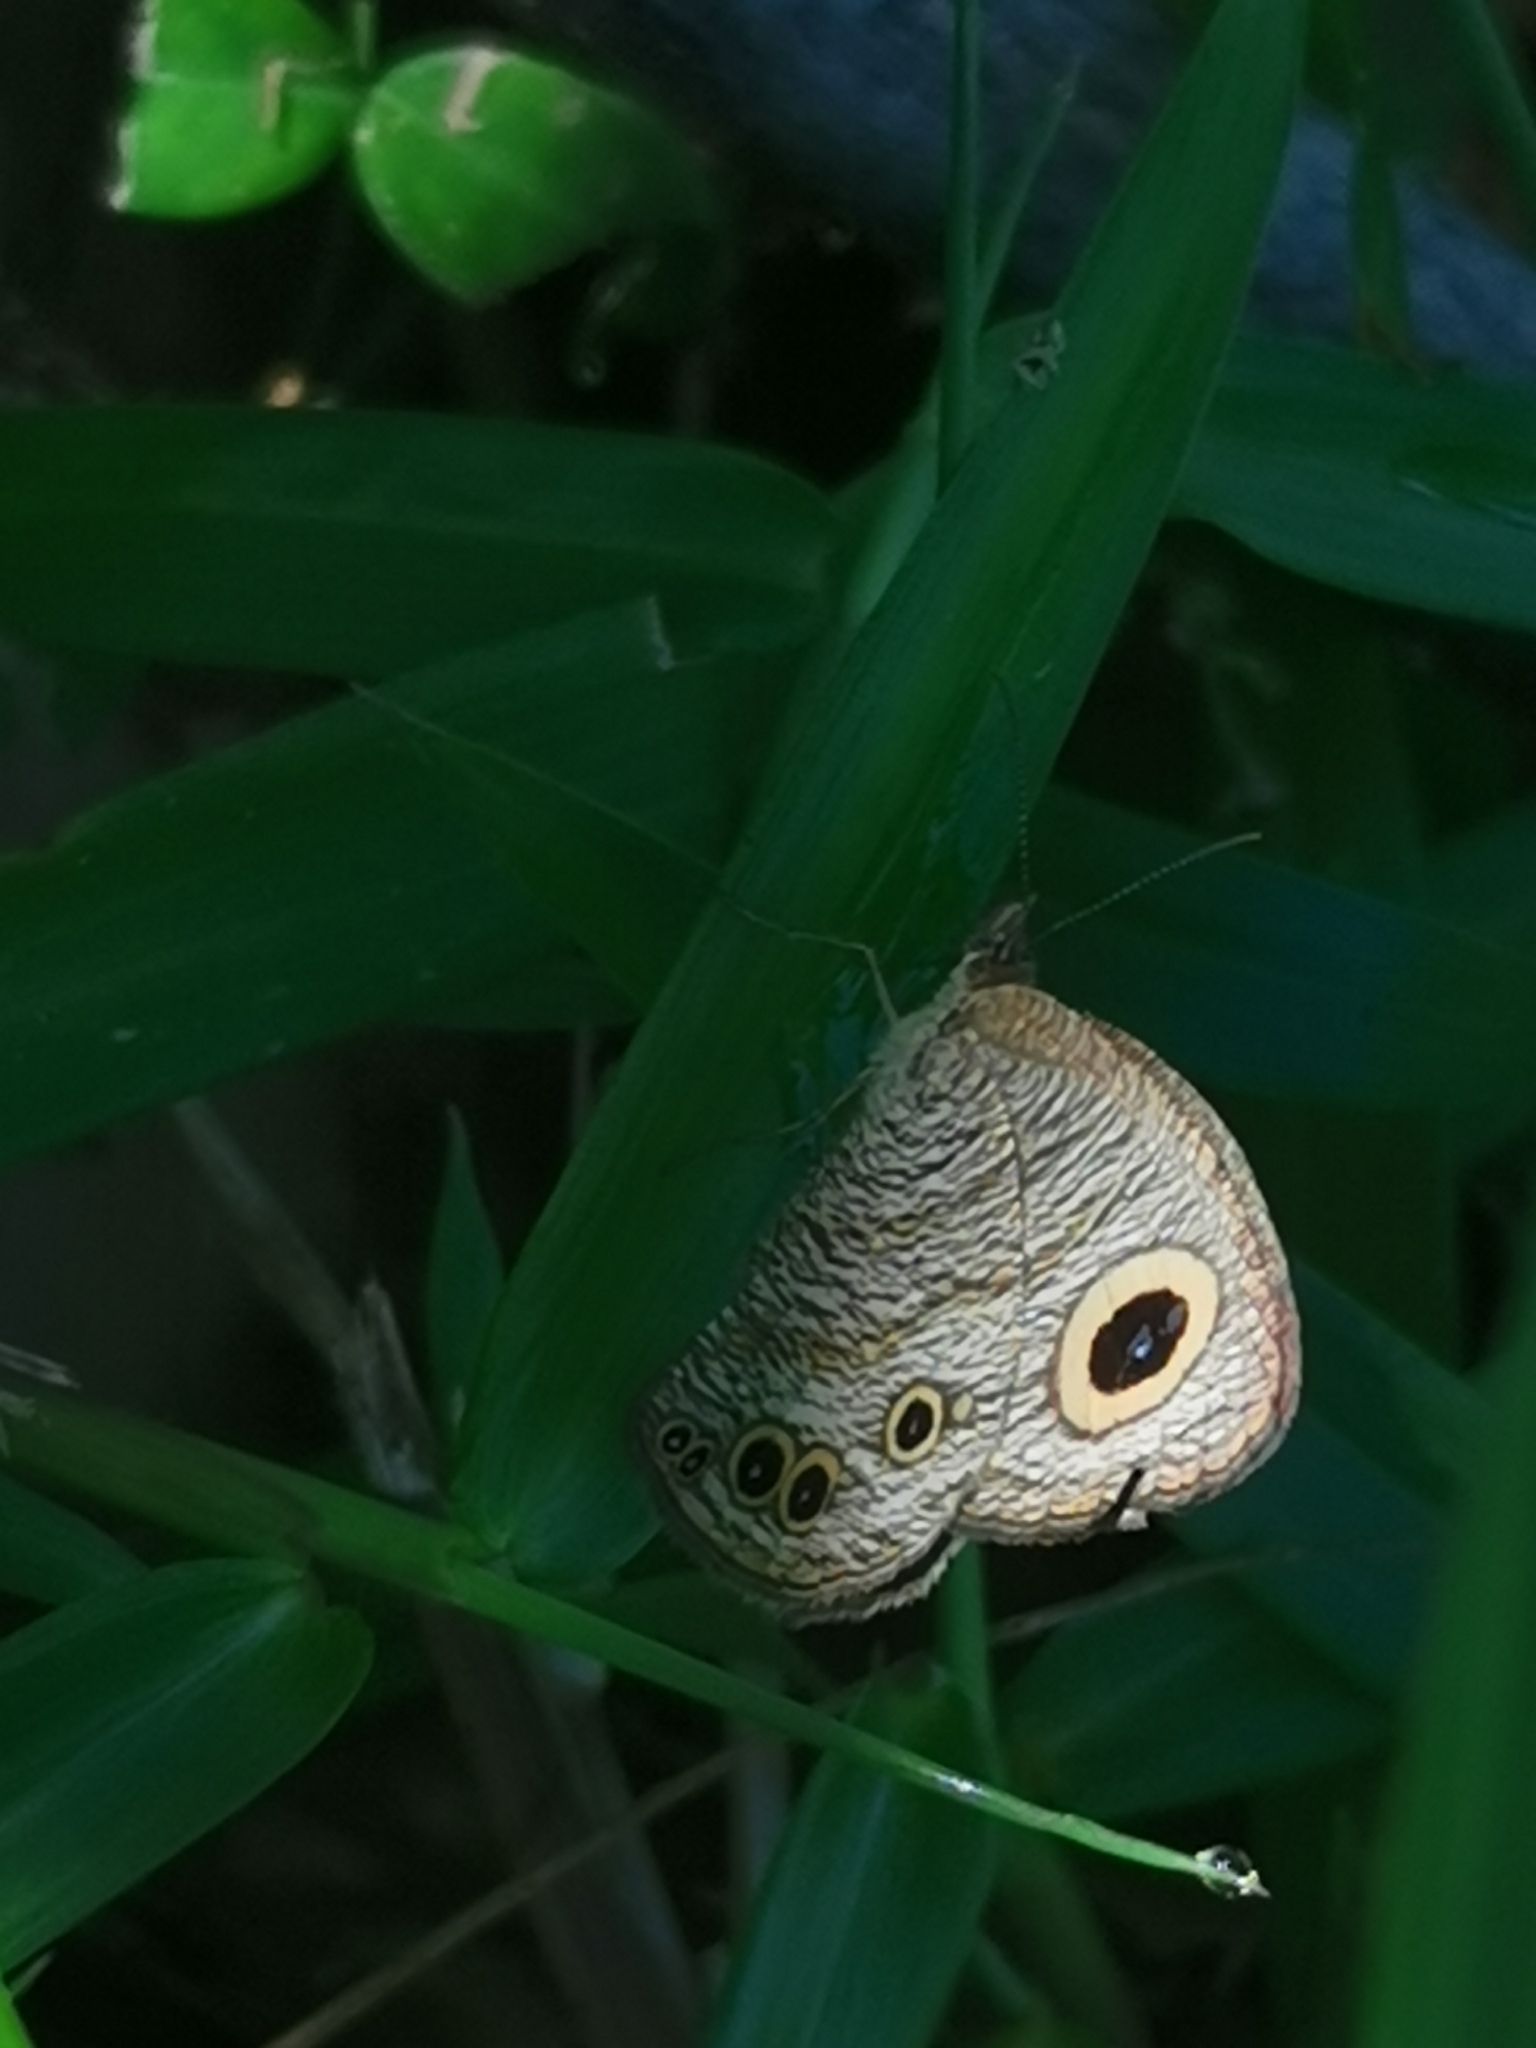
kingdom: Animalia
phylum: Arthropoda
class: Insecta
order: Lepidoptera
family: Nymphalidae
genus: Ypthima
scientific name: Ypthima huebneri
